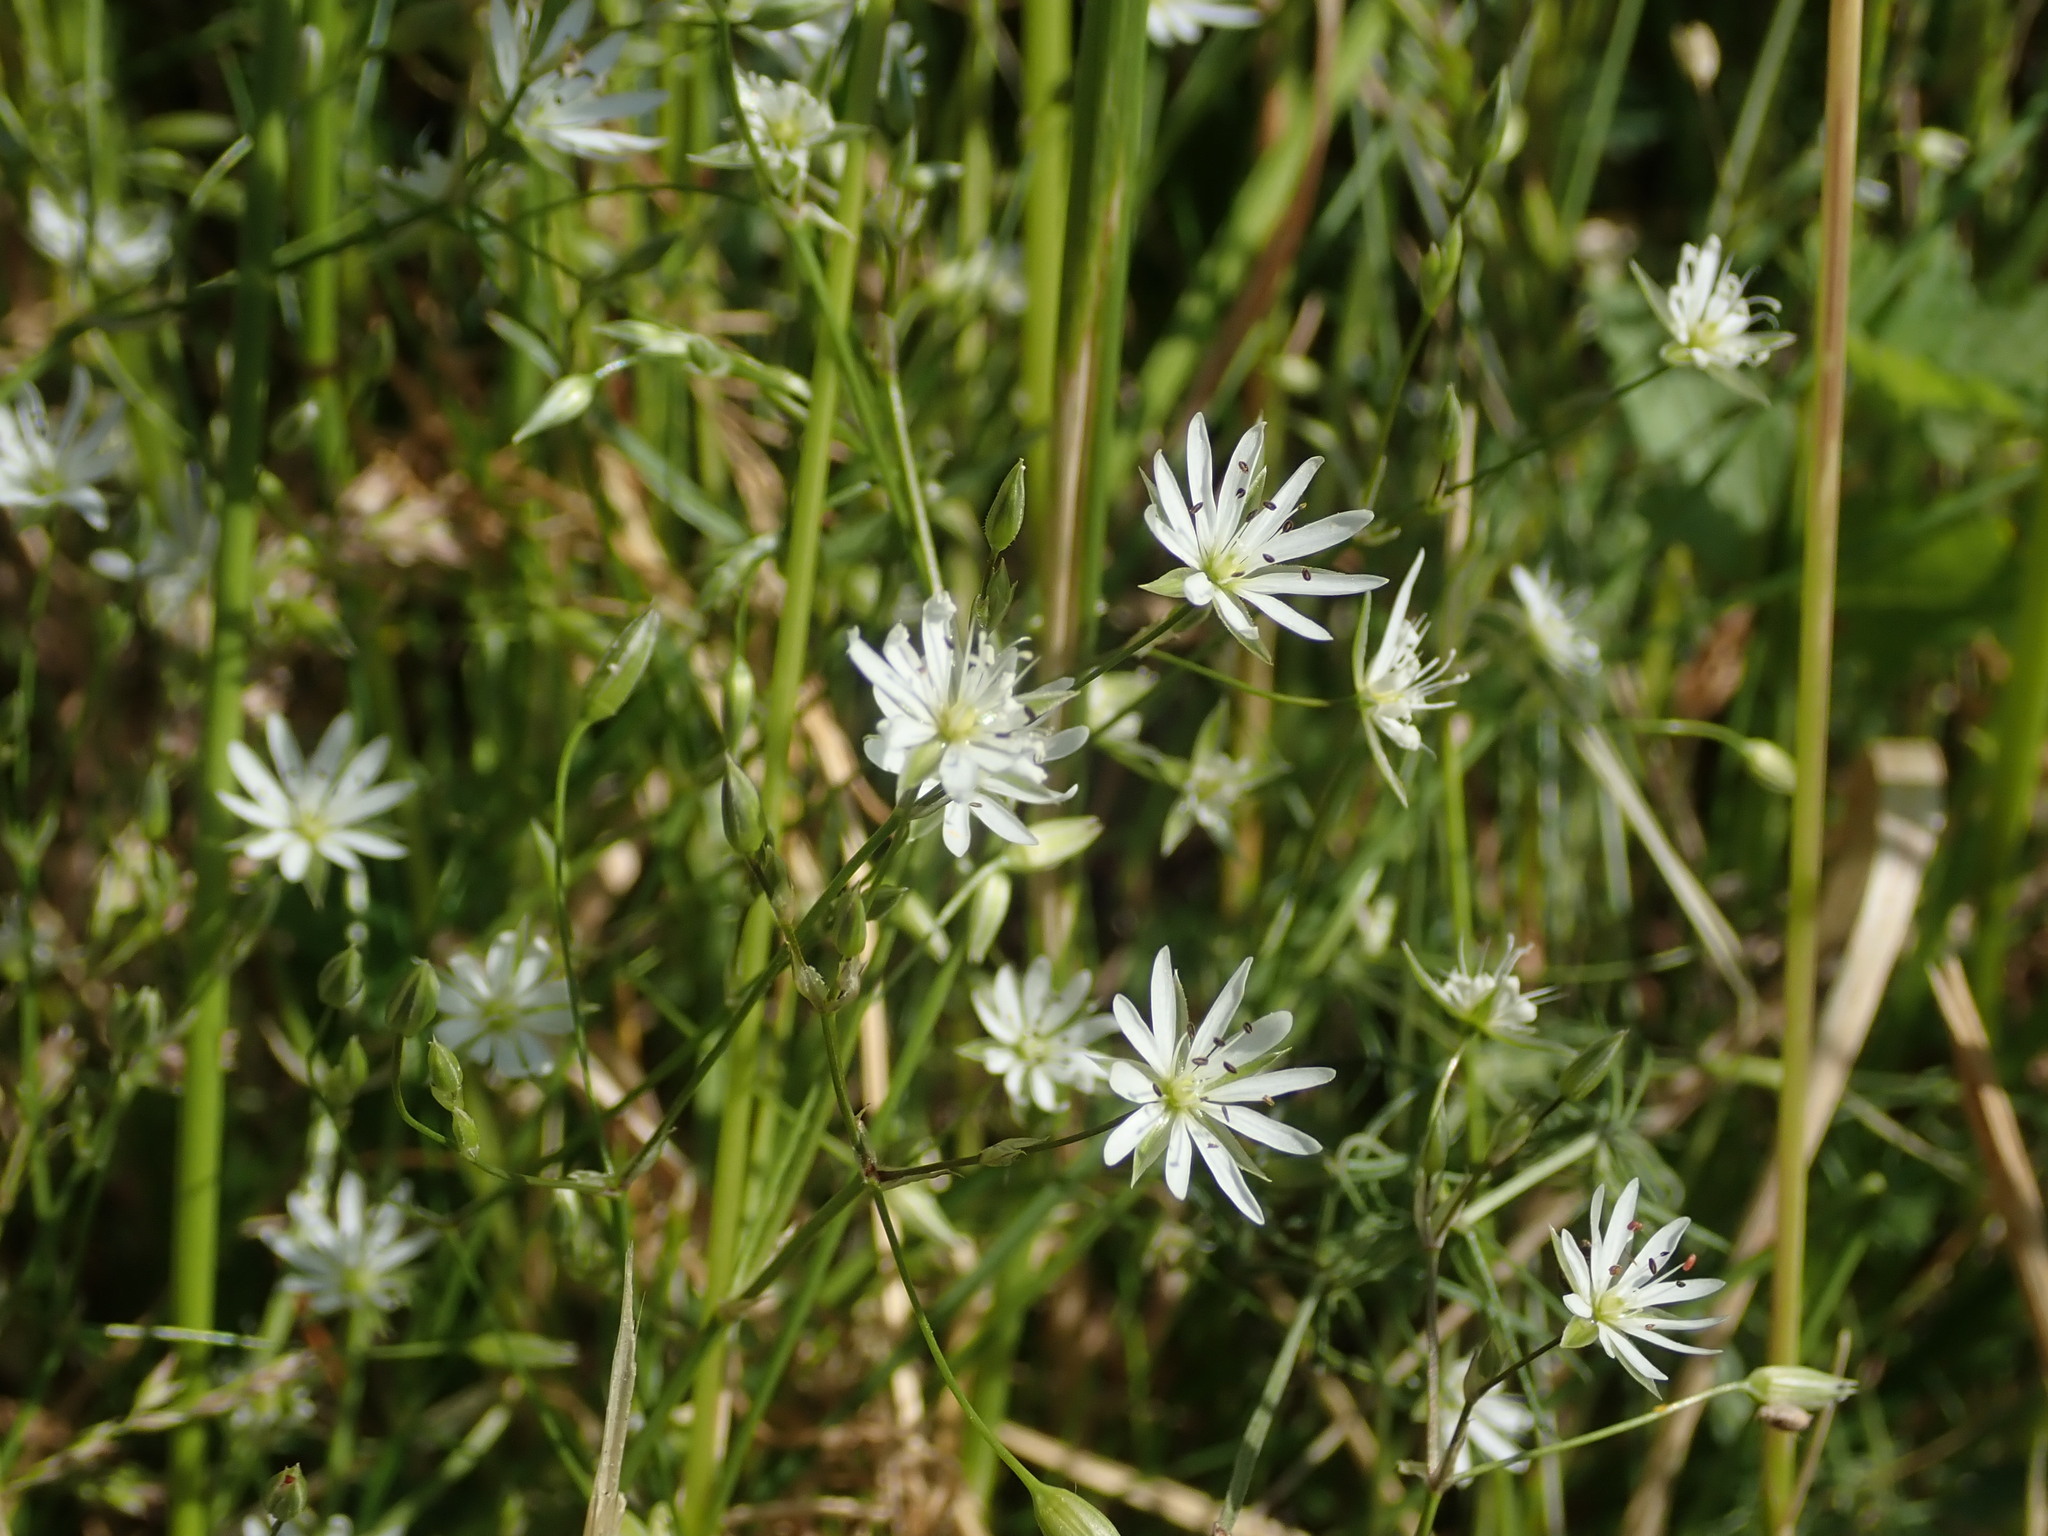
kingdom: Plantae
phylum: Tracheophyta
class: Magnoliopsida
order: Caryophyllales
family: Caryophyllaceae
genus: Stellaria
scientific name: Stellaria graminea
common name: Grass-like starwort
